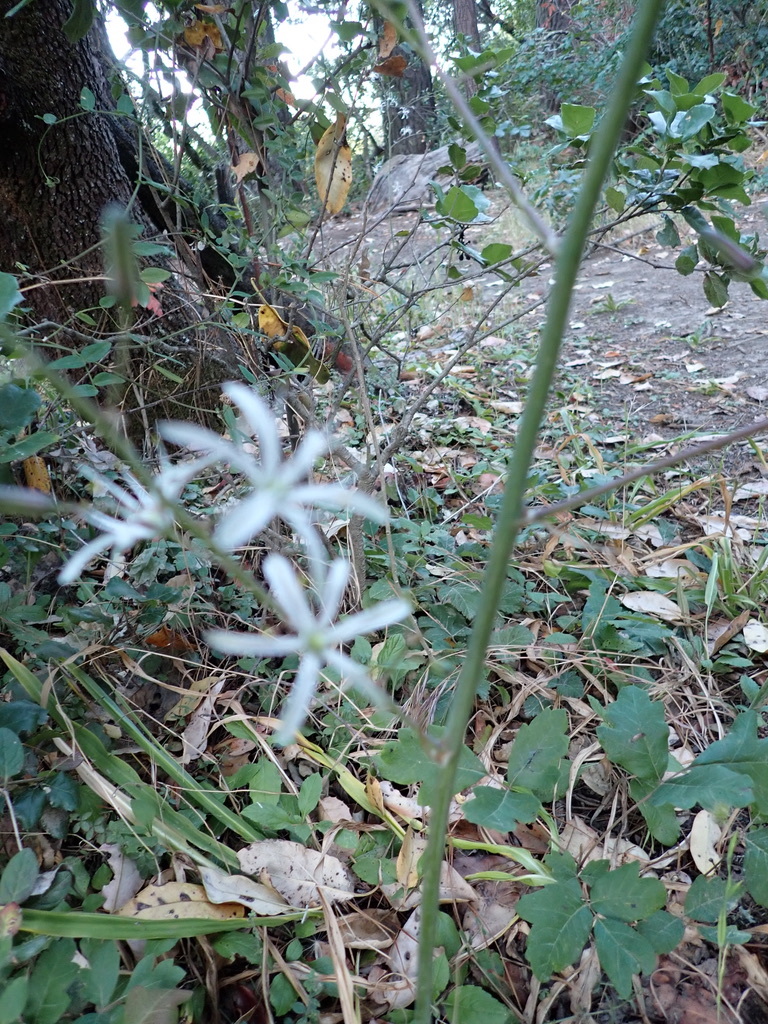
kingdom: Plantae
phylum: Tracheophyta
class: Liliopsida
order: Asparagales
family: Asparagaceae
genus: Chlorogalum
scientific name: Chlorogalum pomeridianum
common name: Amole
